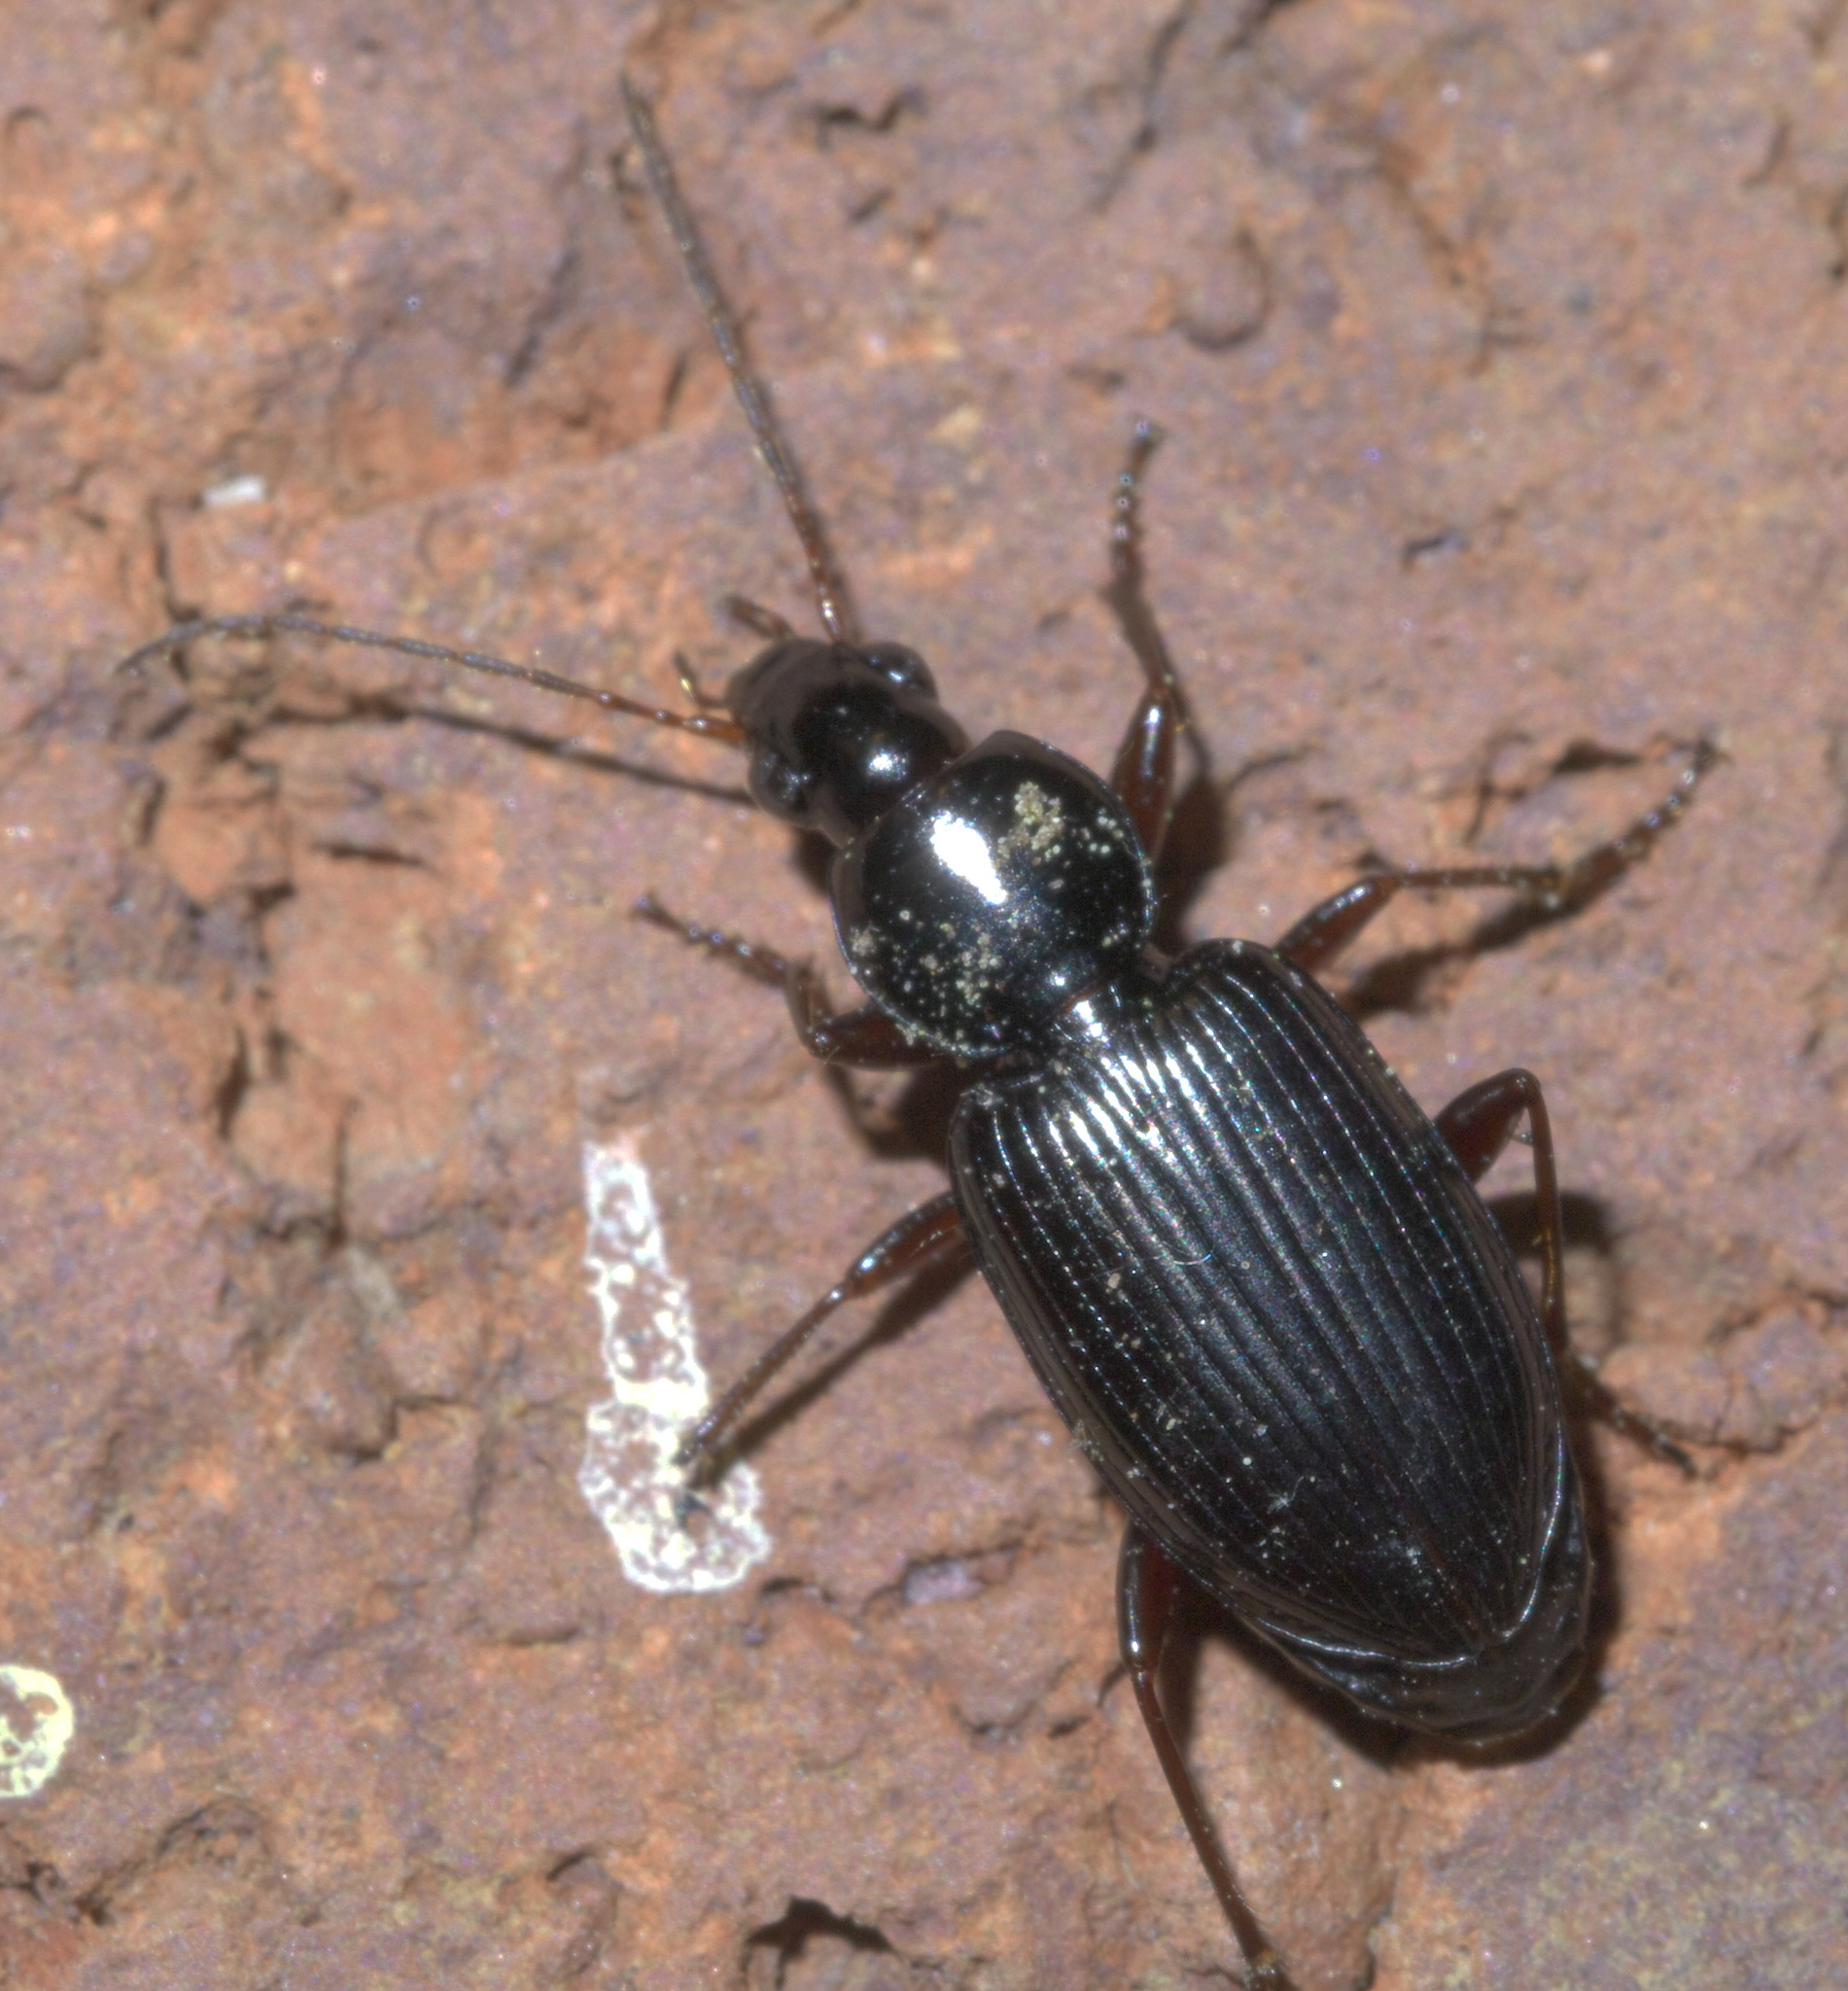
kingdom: Animalia
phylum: Arthropoda
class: Insecta
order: Coleoptera
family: Carabidae
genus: Agonum
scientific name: Agonum punctiforme
